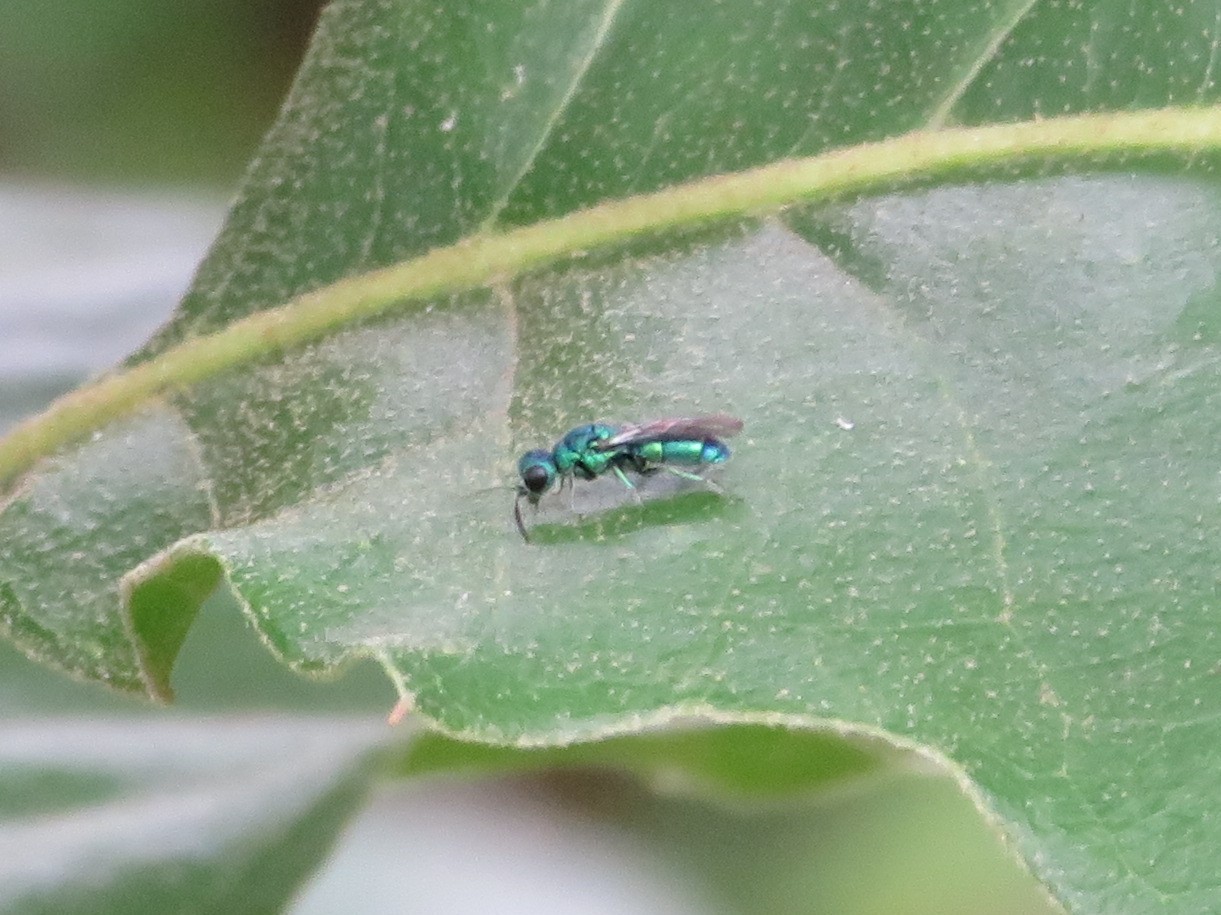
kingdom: Animalia
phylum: Arthropoda
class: Insecta
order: Hymenoptera
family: Chrysididae
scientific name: Chrysididae
